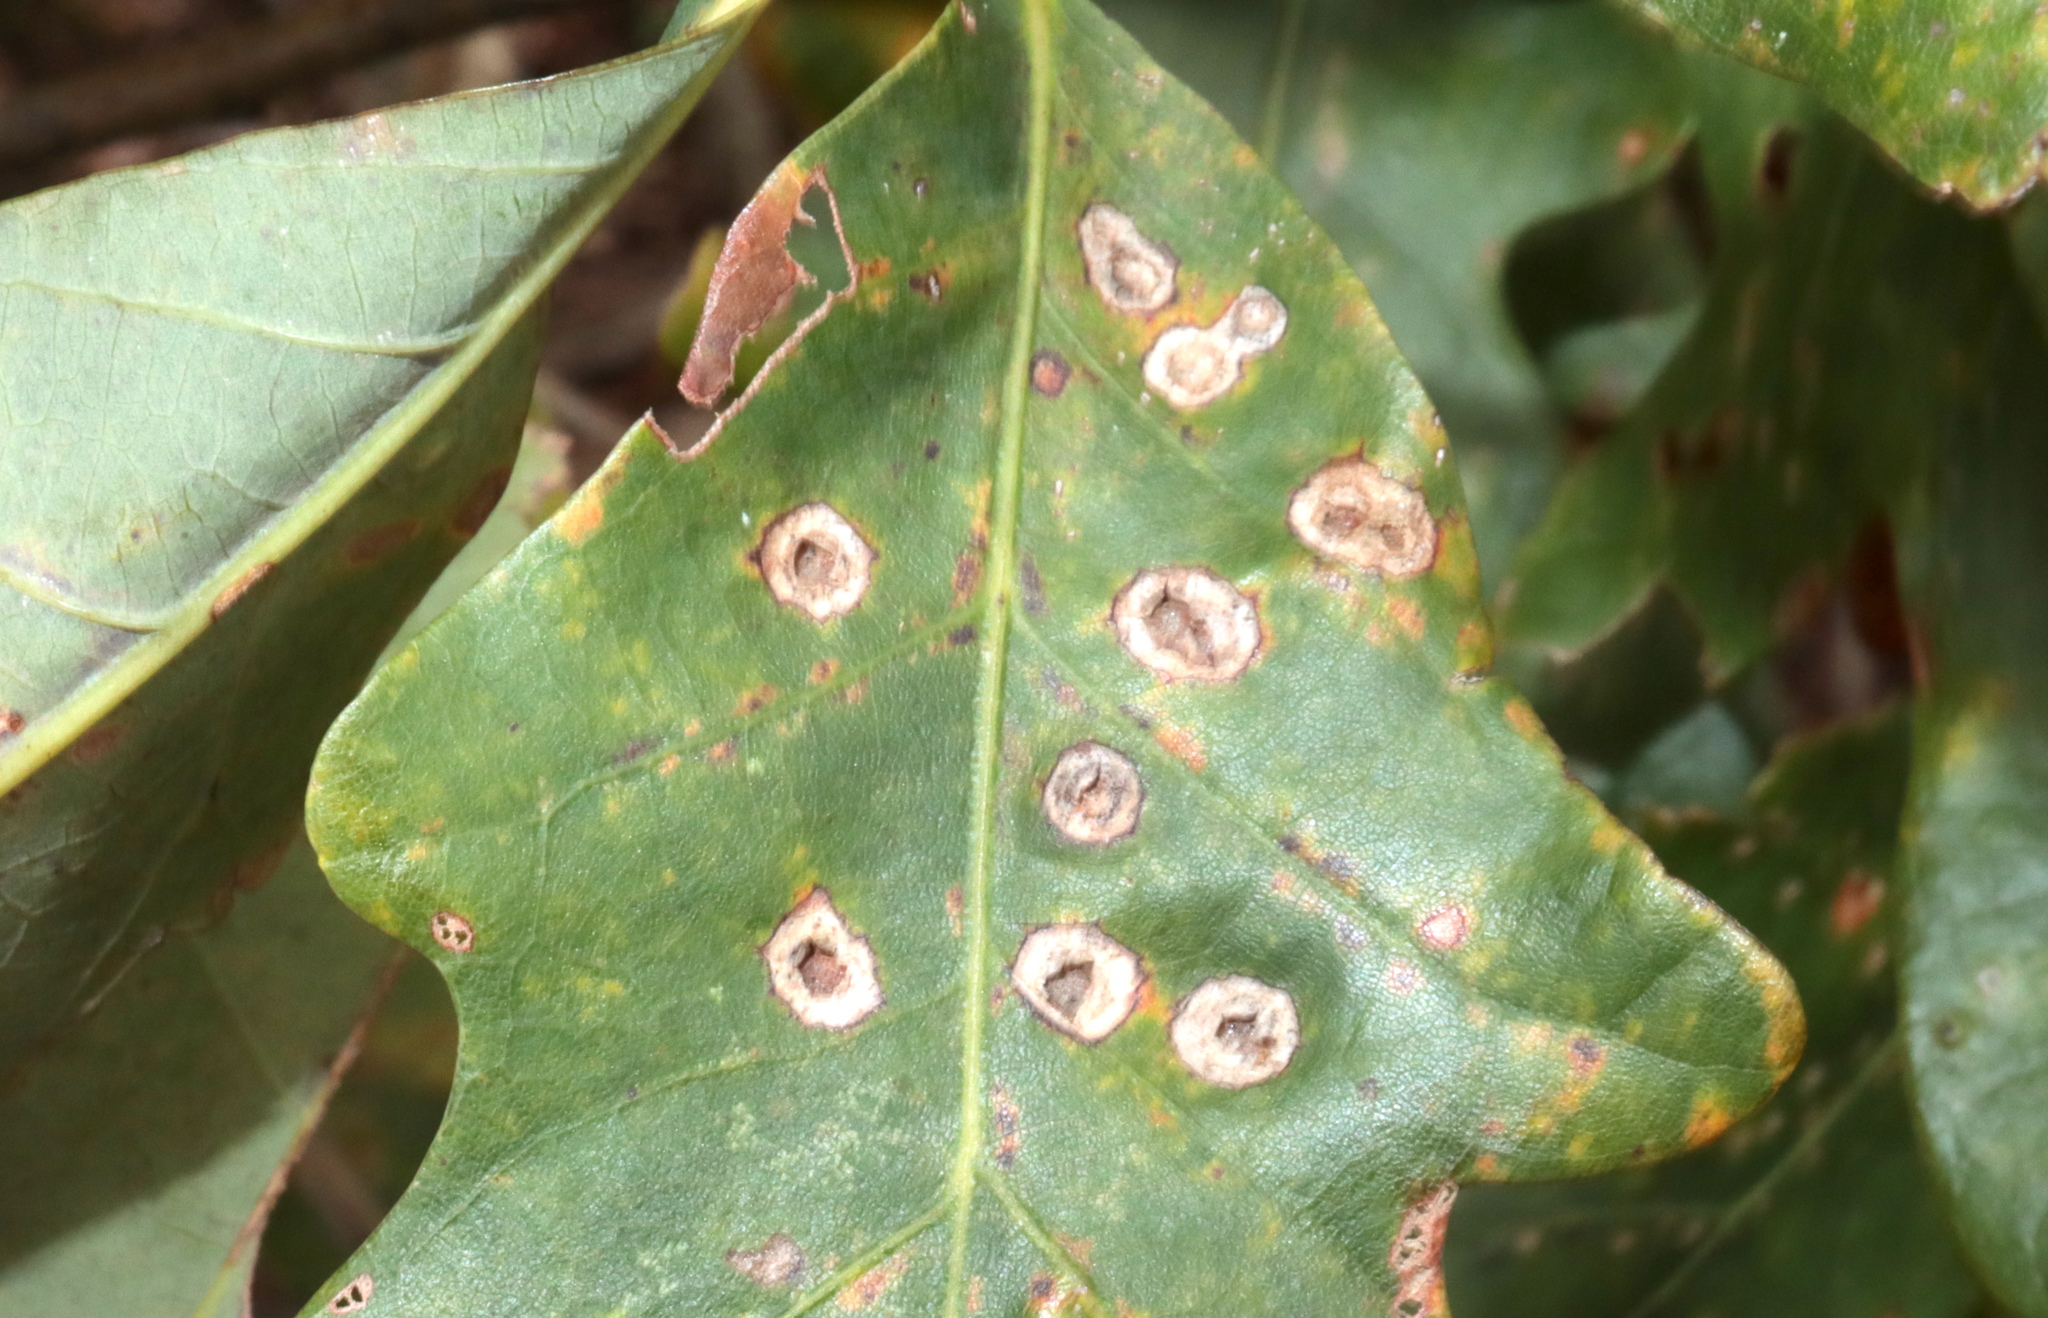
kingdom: Animalia
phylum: Arthropoda
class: Insecta
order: Hymenoptera
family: Cynipidae
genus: Callirhytis
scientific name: Callirhytis
